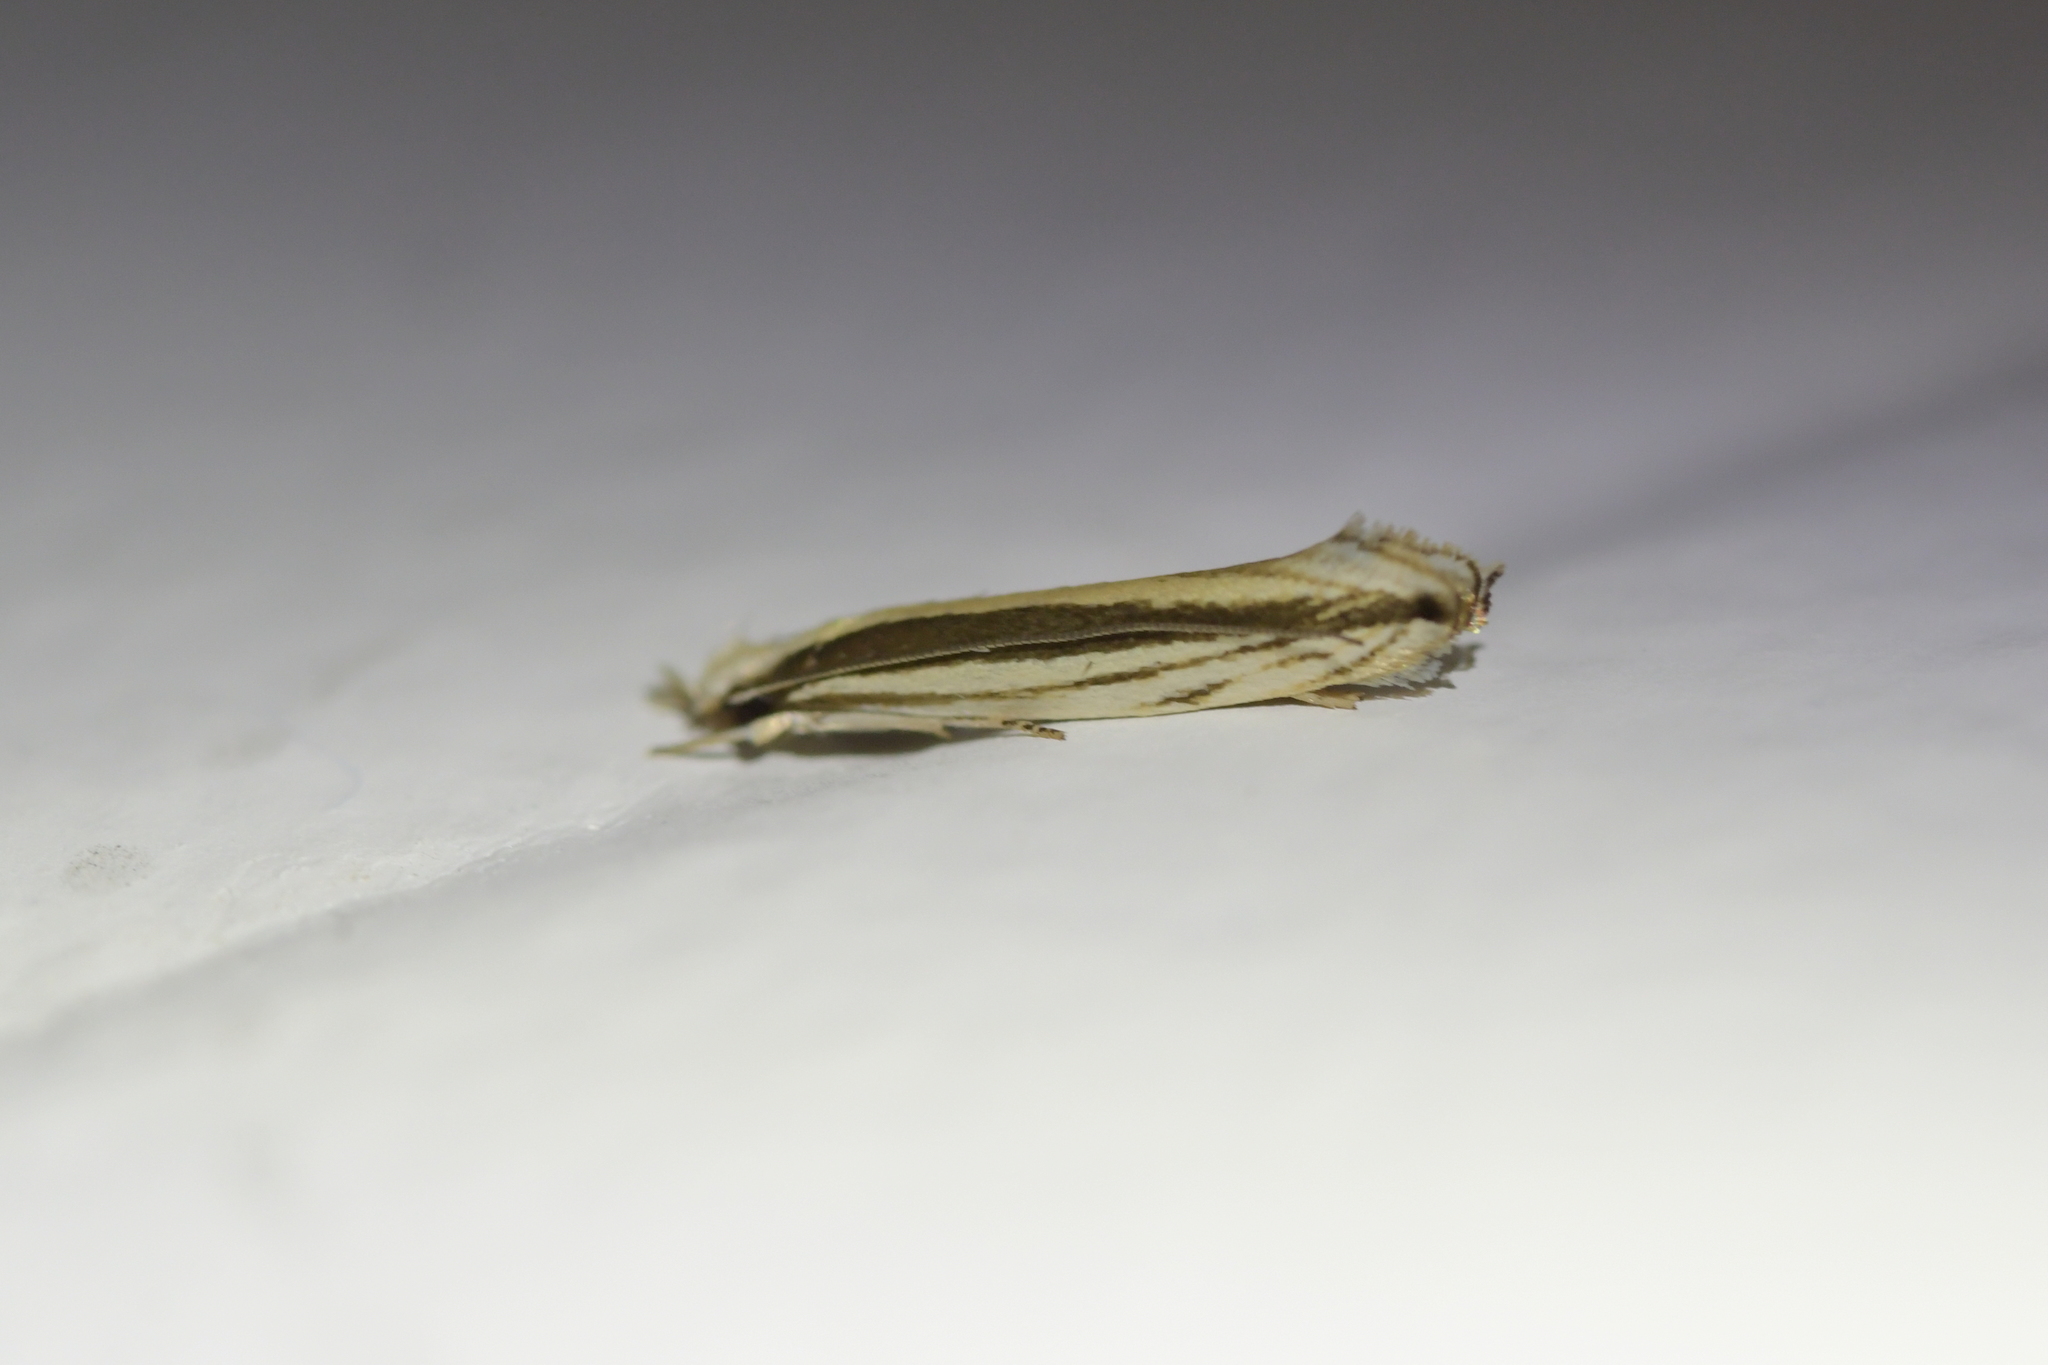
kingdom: Animalia
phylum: Arthropoda
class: Insecta
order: Lepidoptera
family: Tineidae
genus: Erechthias
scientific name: Erechthias stilbella
